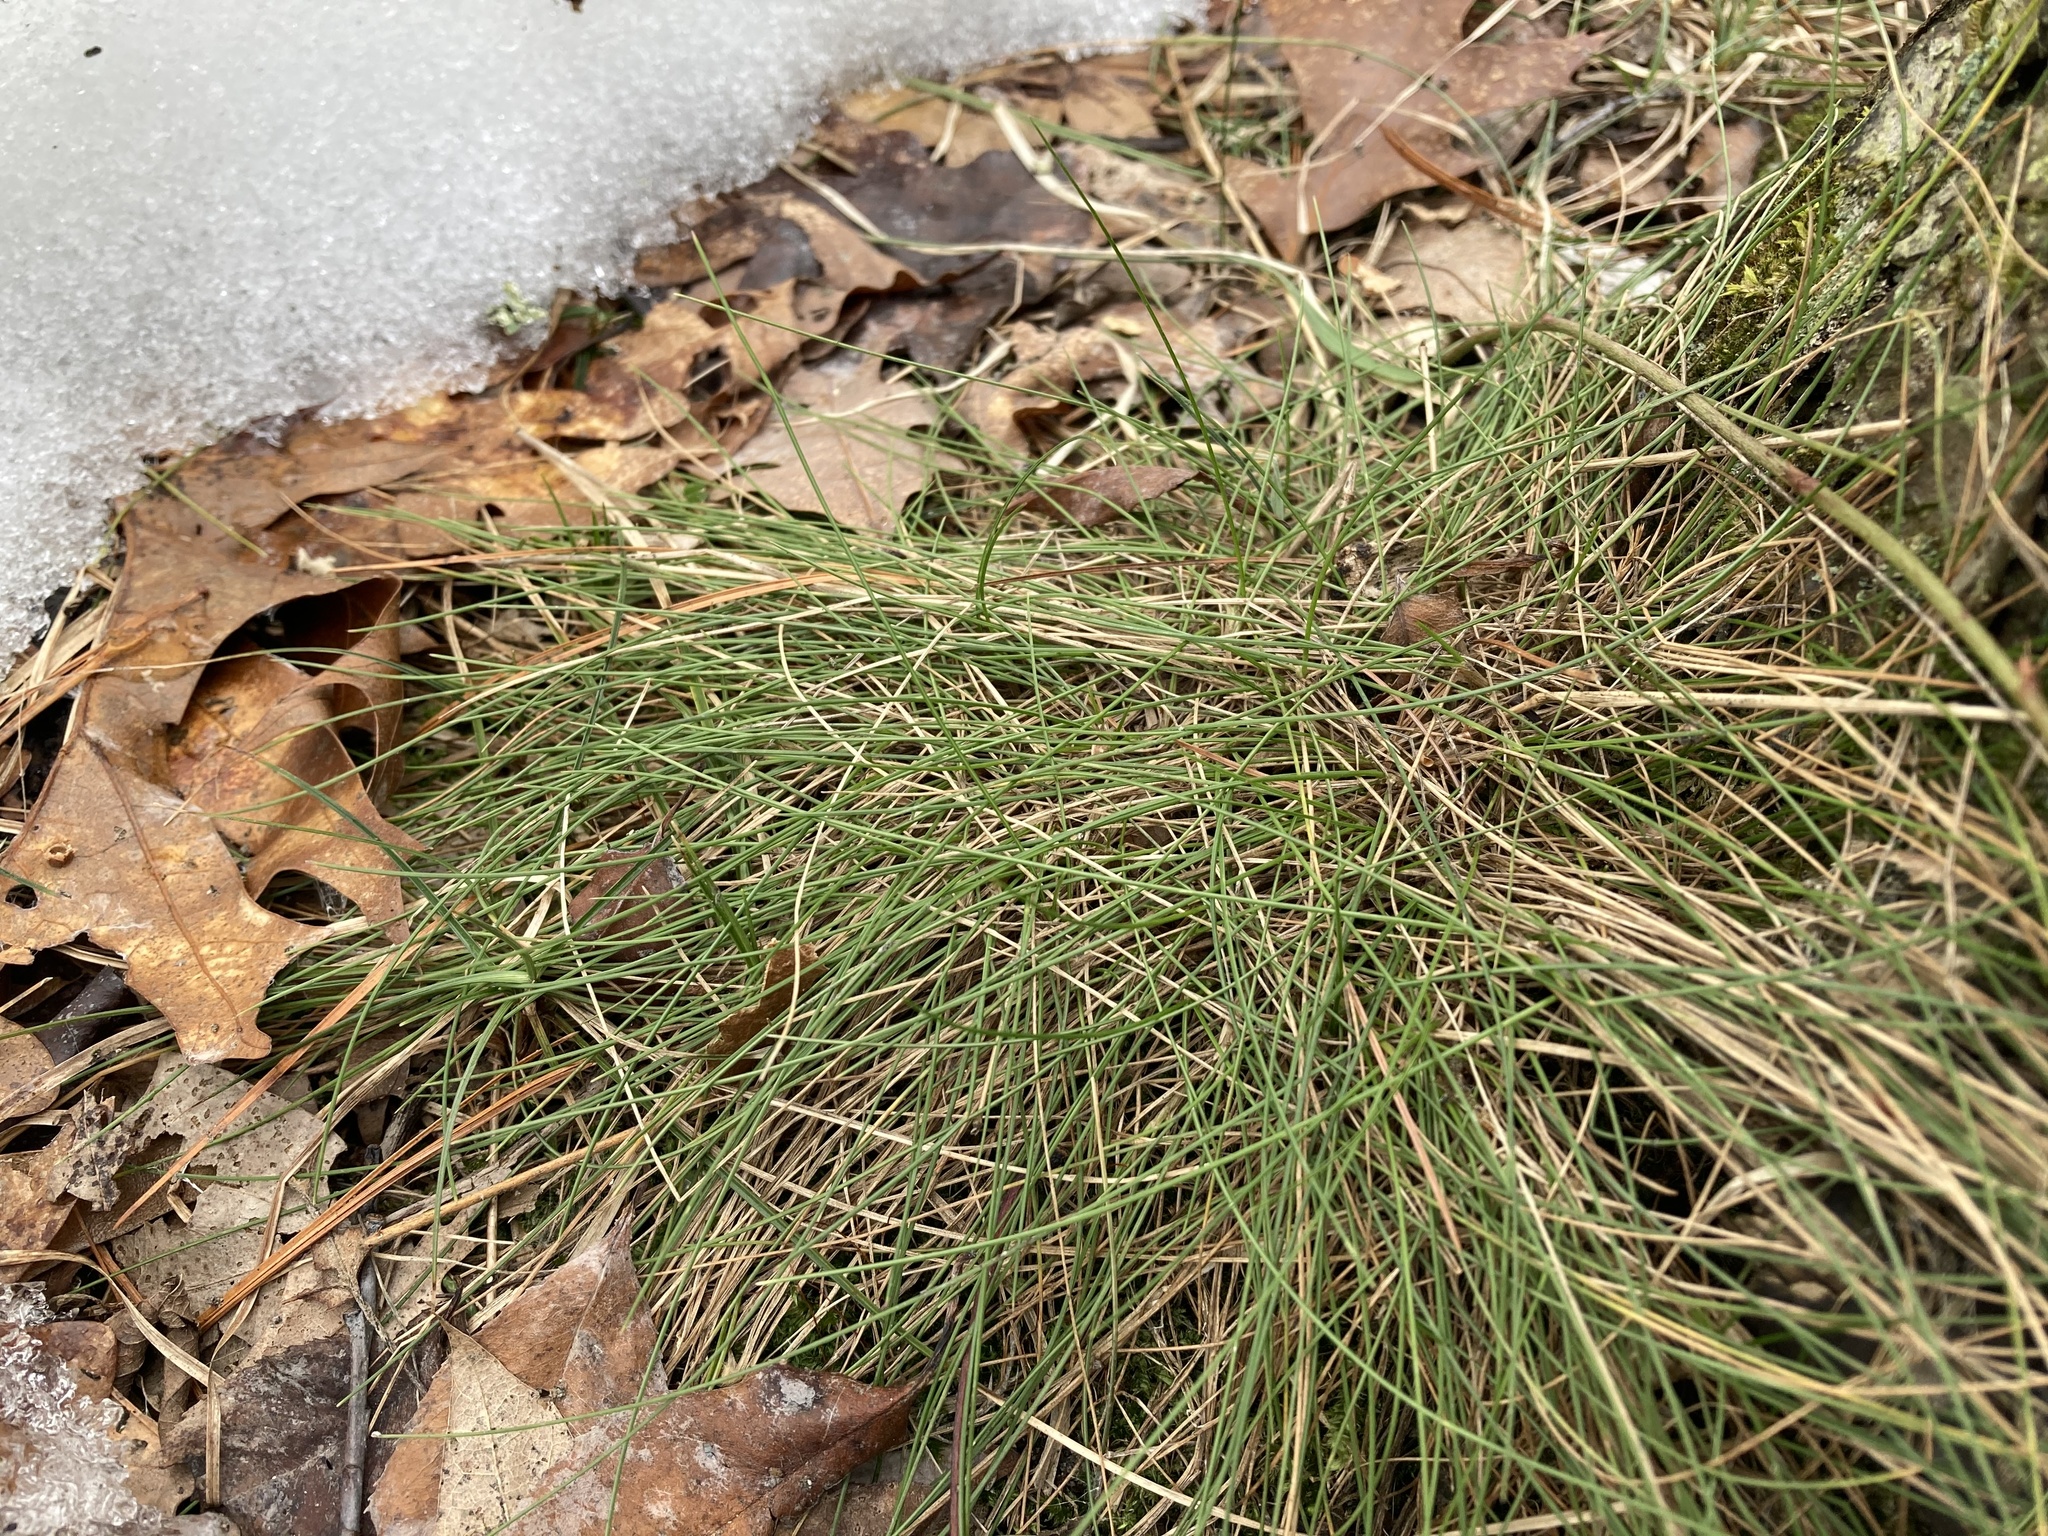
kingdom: Plantae
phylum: Tracheophyta
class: Liliopsida
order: Poales
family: Cyperaceae
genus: Carex
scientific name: Carex eburnea
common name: Bristle-leaved sedge
